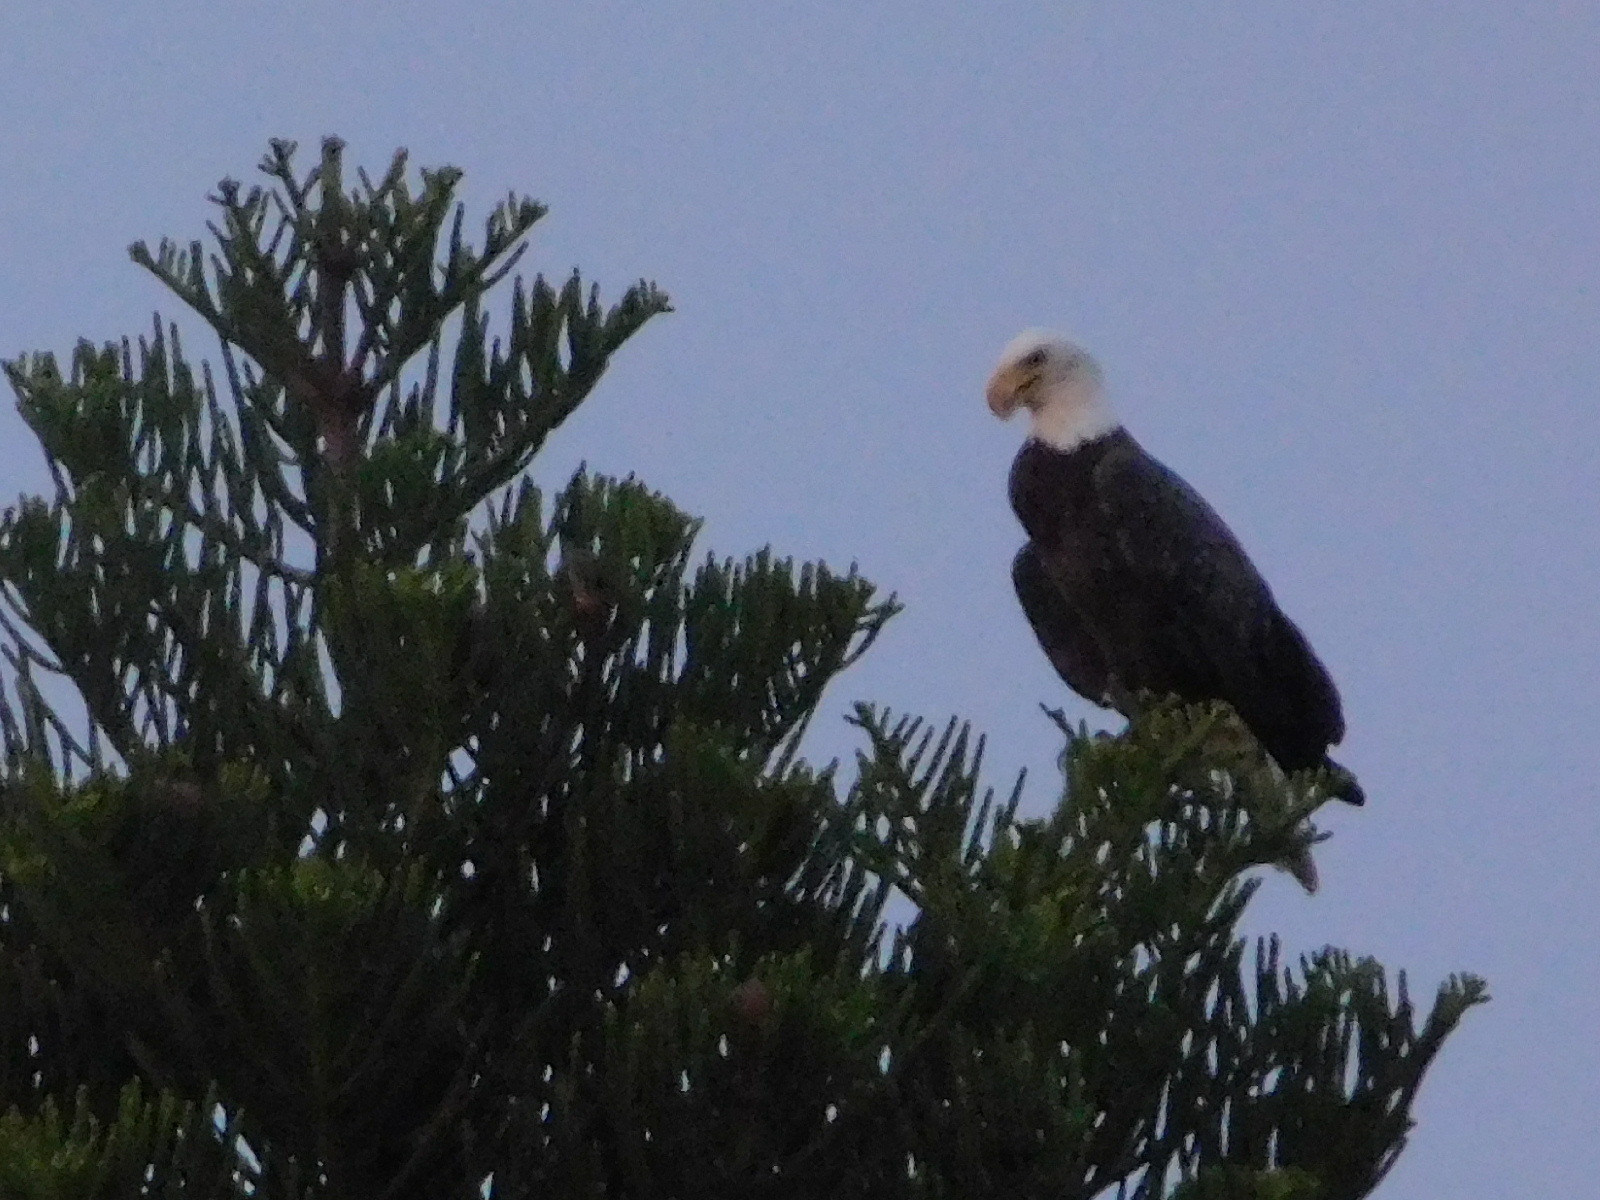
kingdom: Animalia
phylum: Chordata
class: Aves
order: Accipitriformes
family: Accipitridae
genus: Haliaeetus
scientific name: Haliaeetus leucocephalus
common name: Bald eagle
